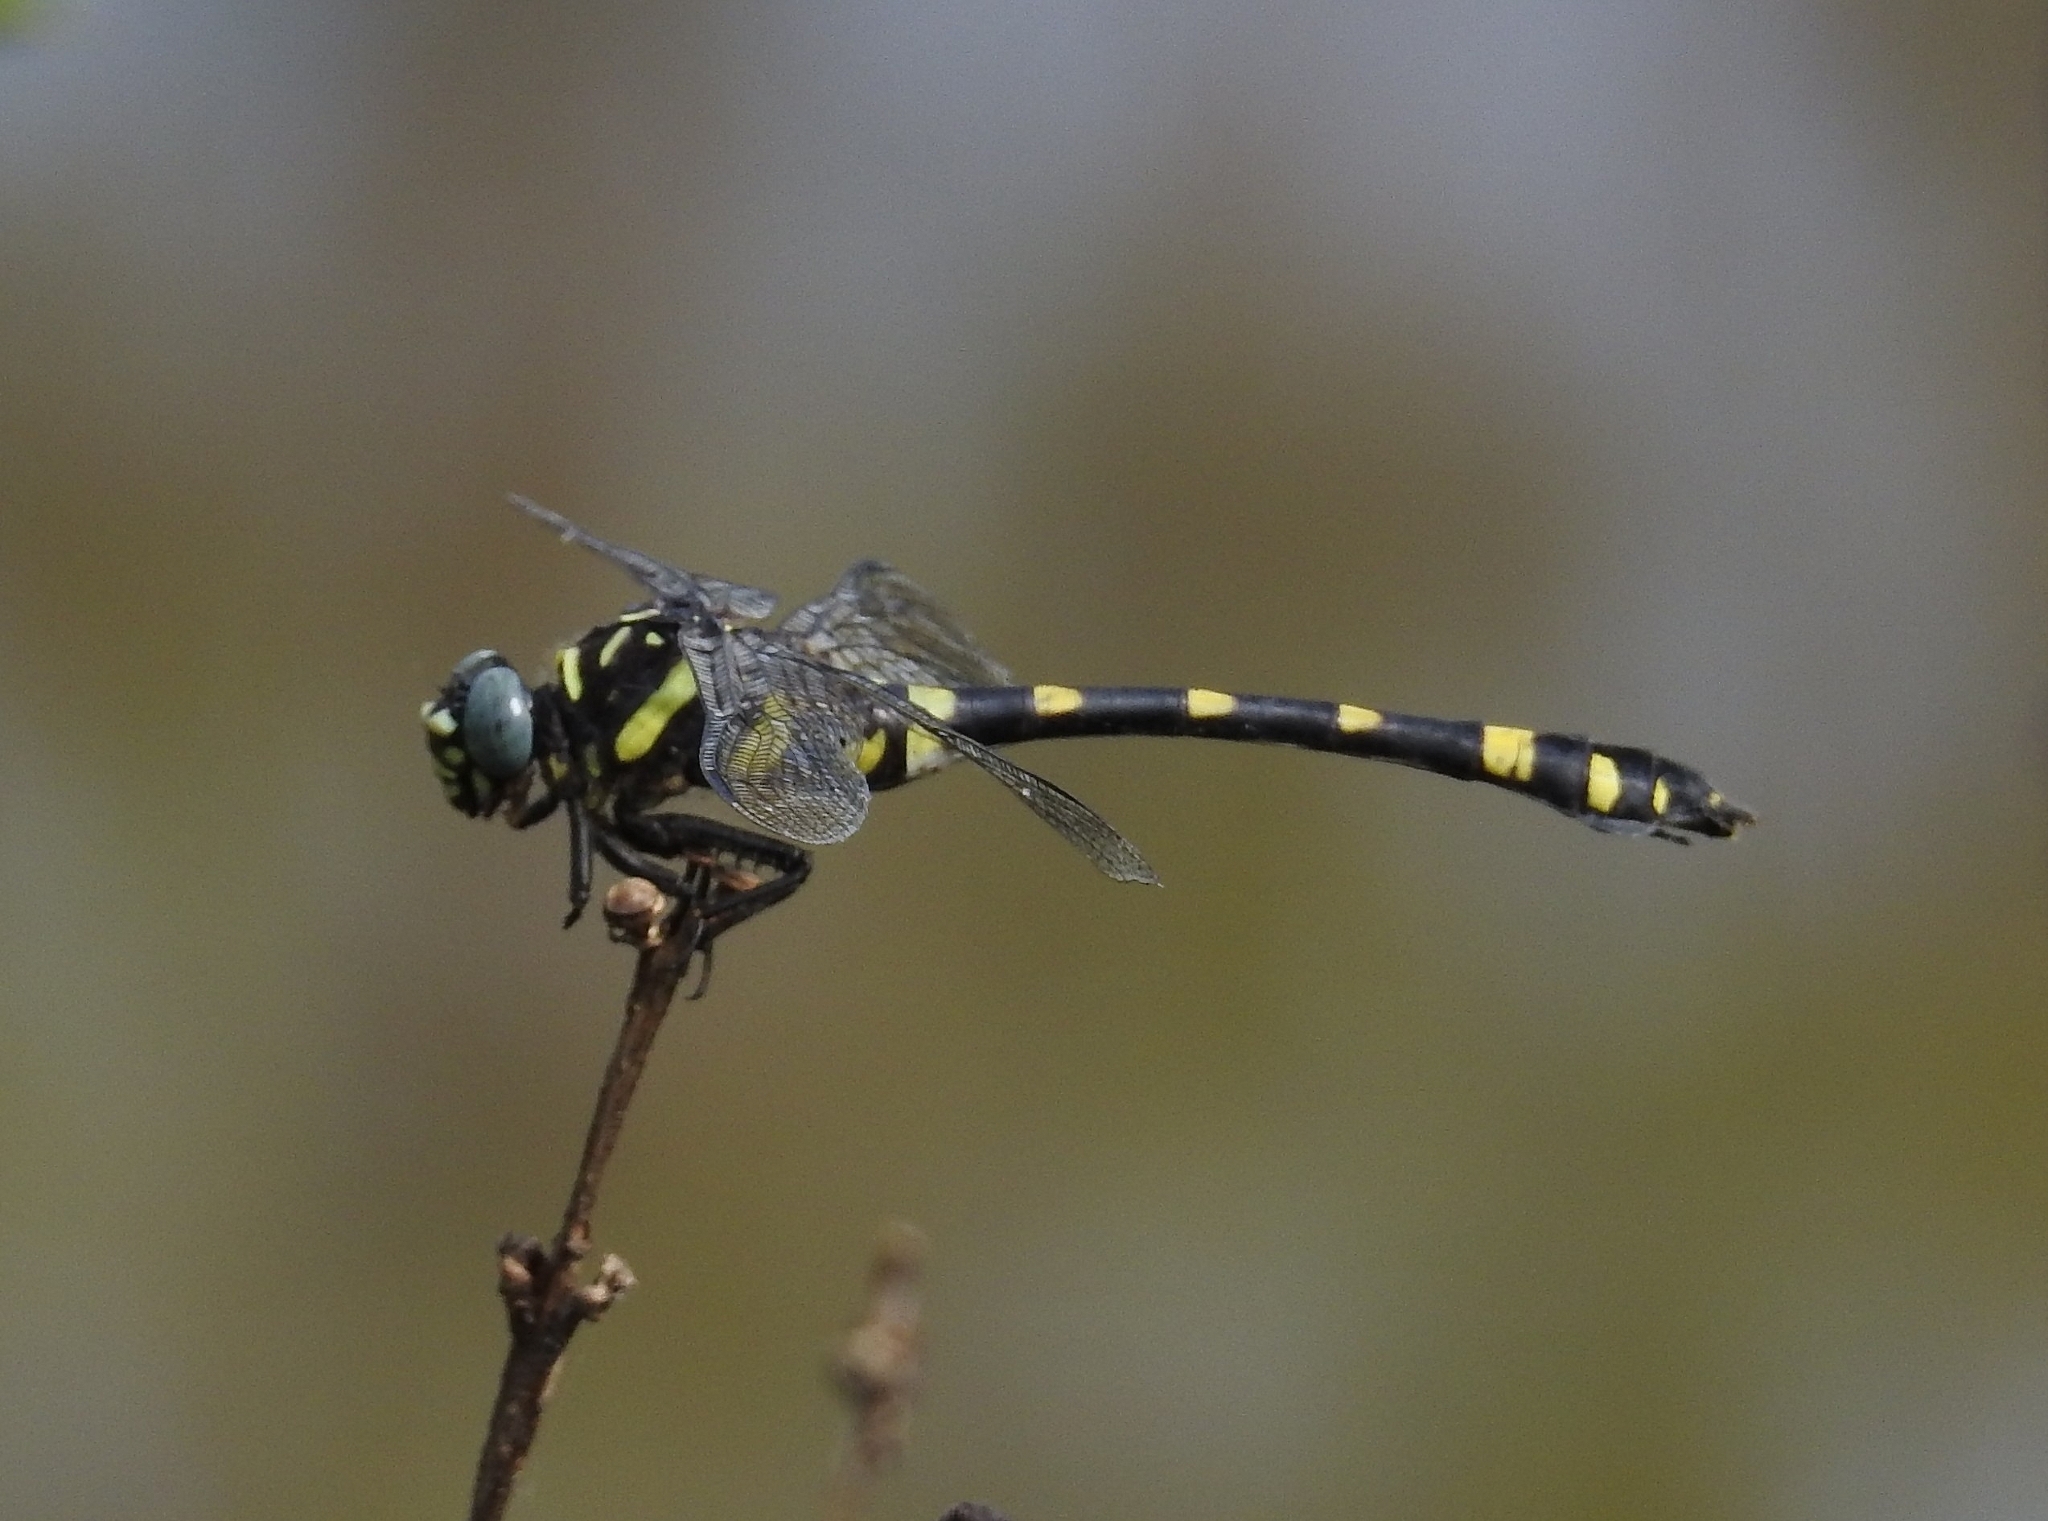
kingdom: Animalia
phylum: Arthropoda
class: Insecta
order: Odonata
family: Gomphidae
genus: Ictinogomphus
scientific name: Ictinogomphus rapax
